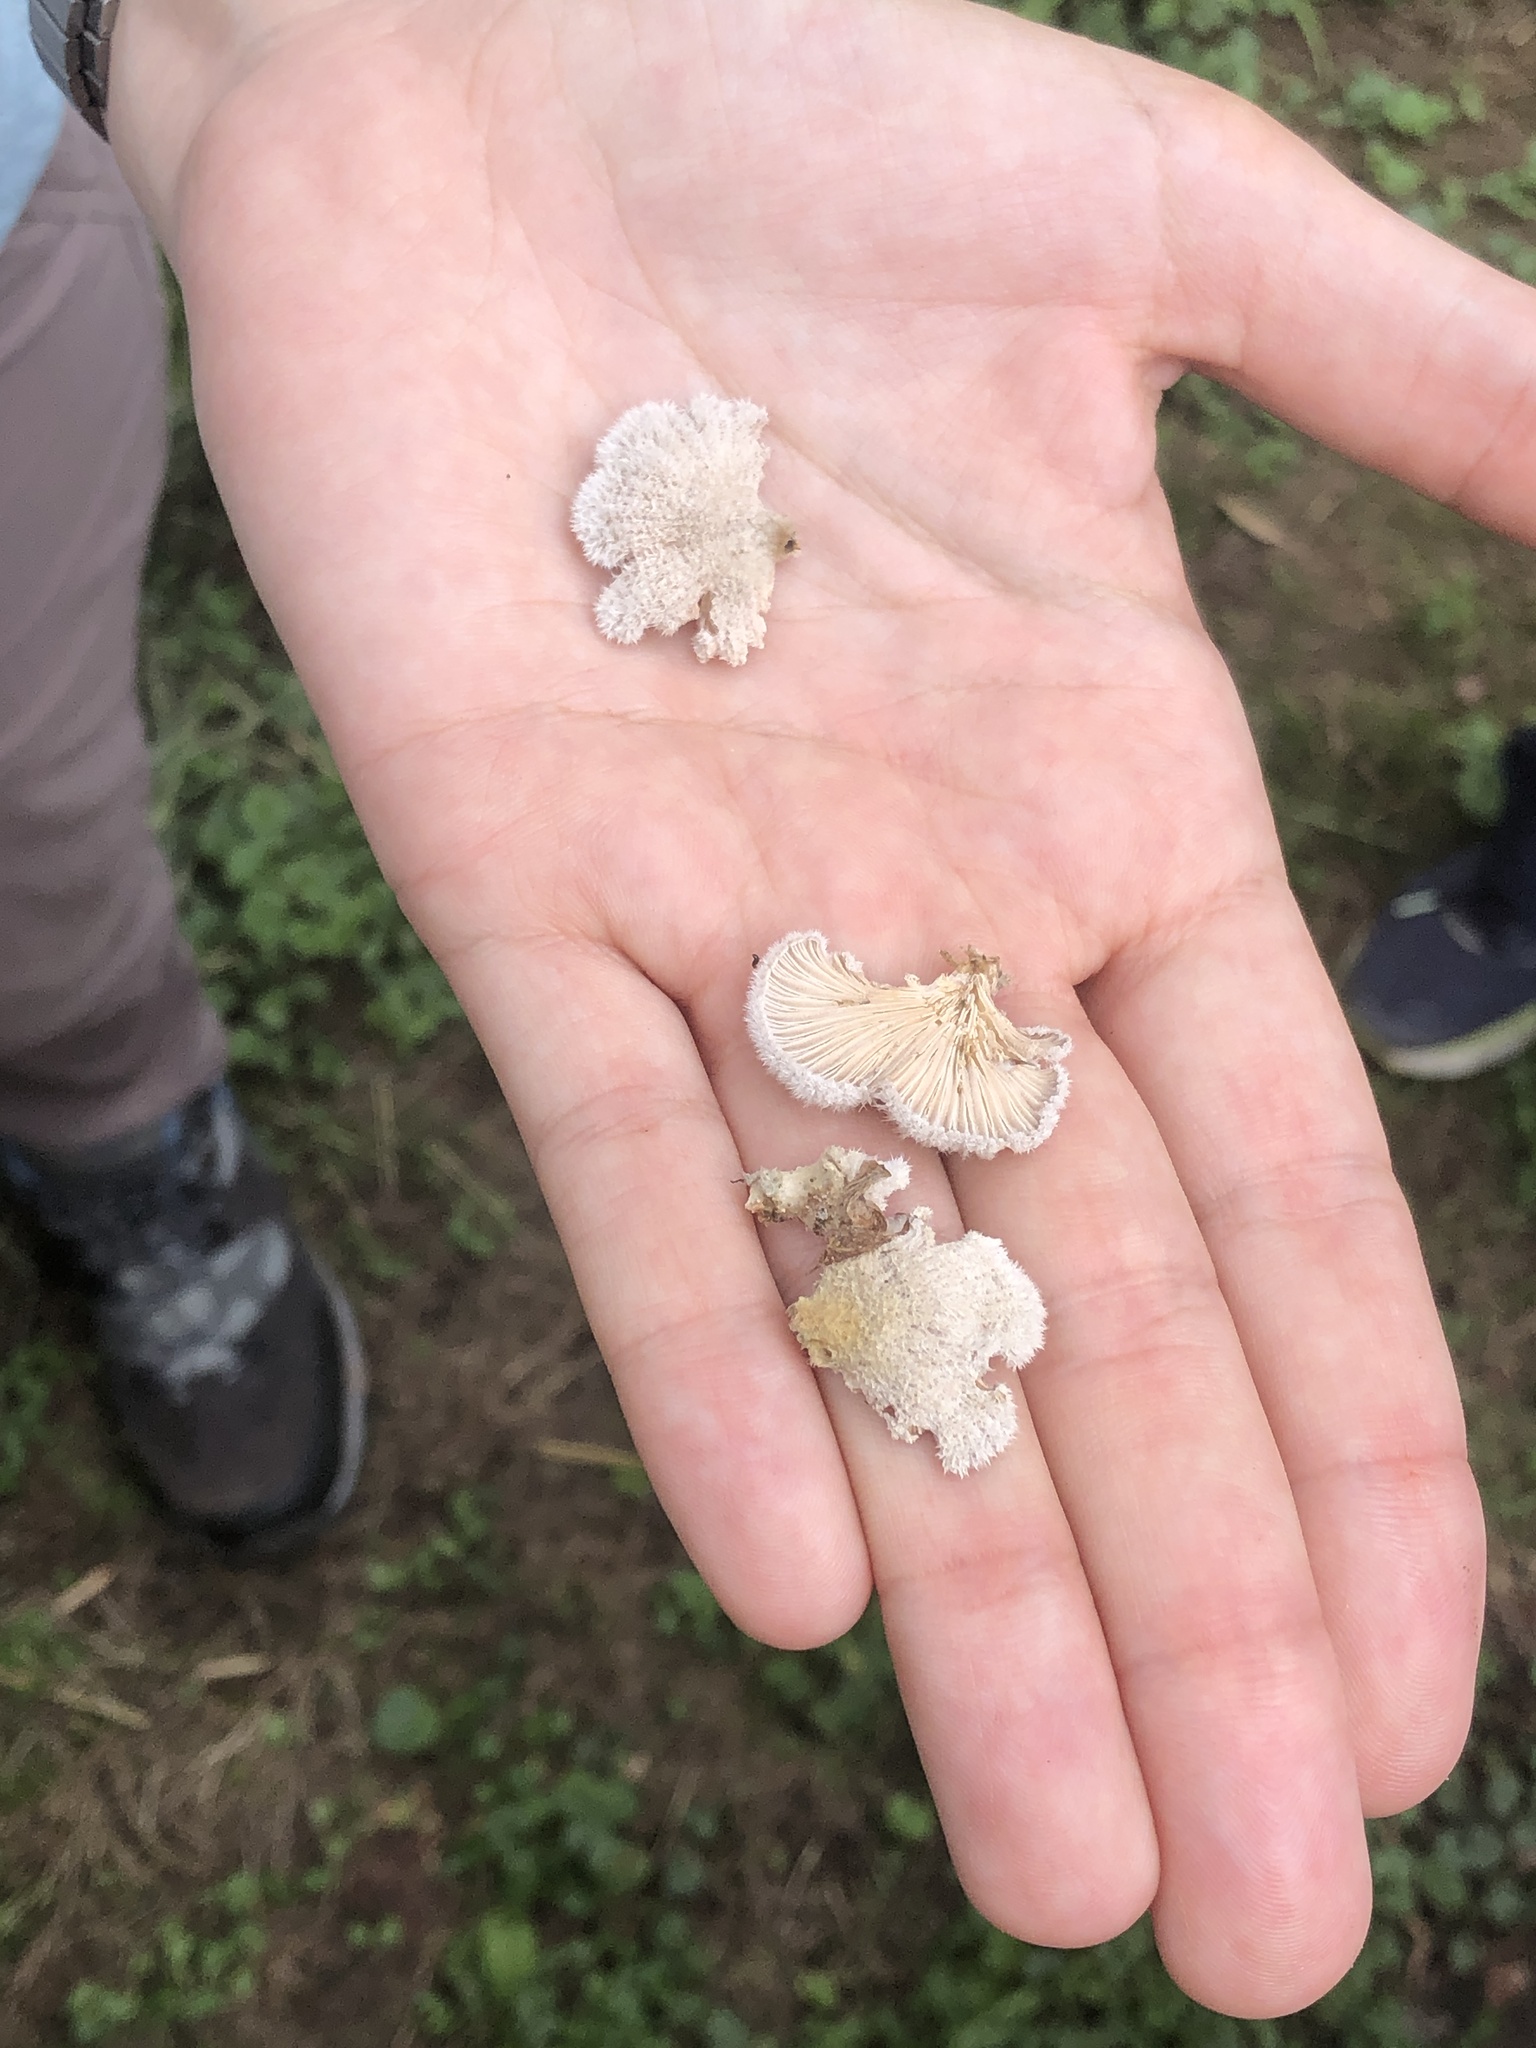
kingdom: Fungi
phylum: Basidiomycota
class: Agaricomycetes
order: Agaricales
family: Schizophyllaceae
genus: Schizophyllum
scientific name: Schizophyllum commune
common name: Common porecrust
